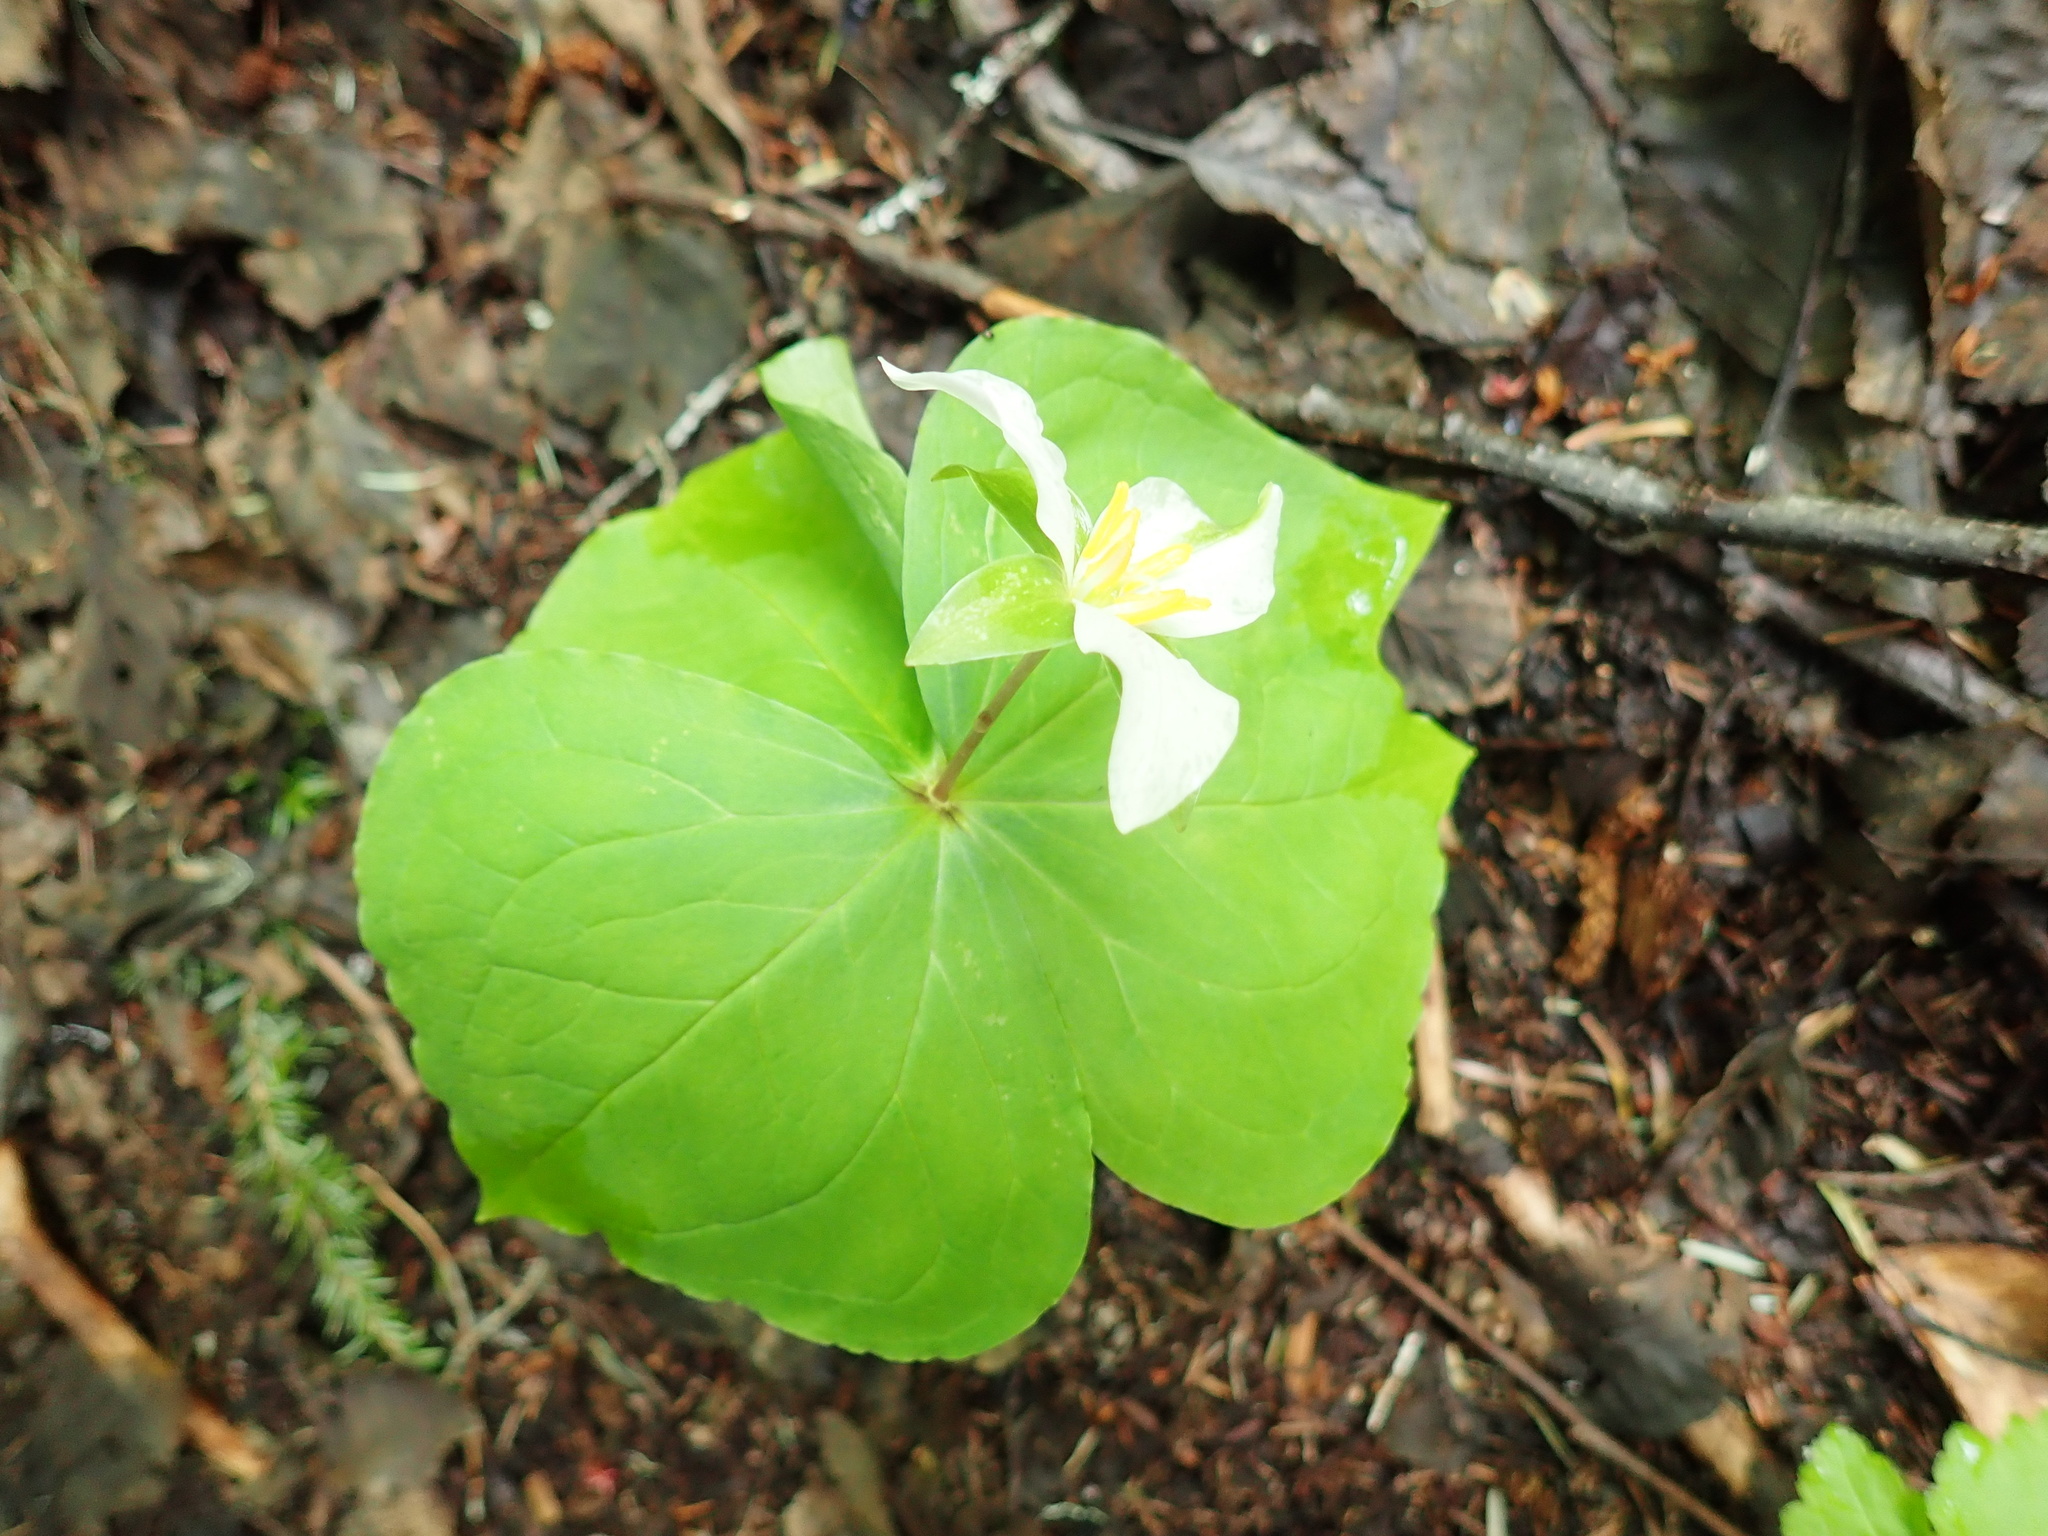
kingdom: Plantae
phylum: Tracheophyta
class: Liliopsida
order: Liliales
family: Melanthiaceae
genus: Trillium
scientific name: Trillium ovatum
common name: Pacific trillium
